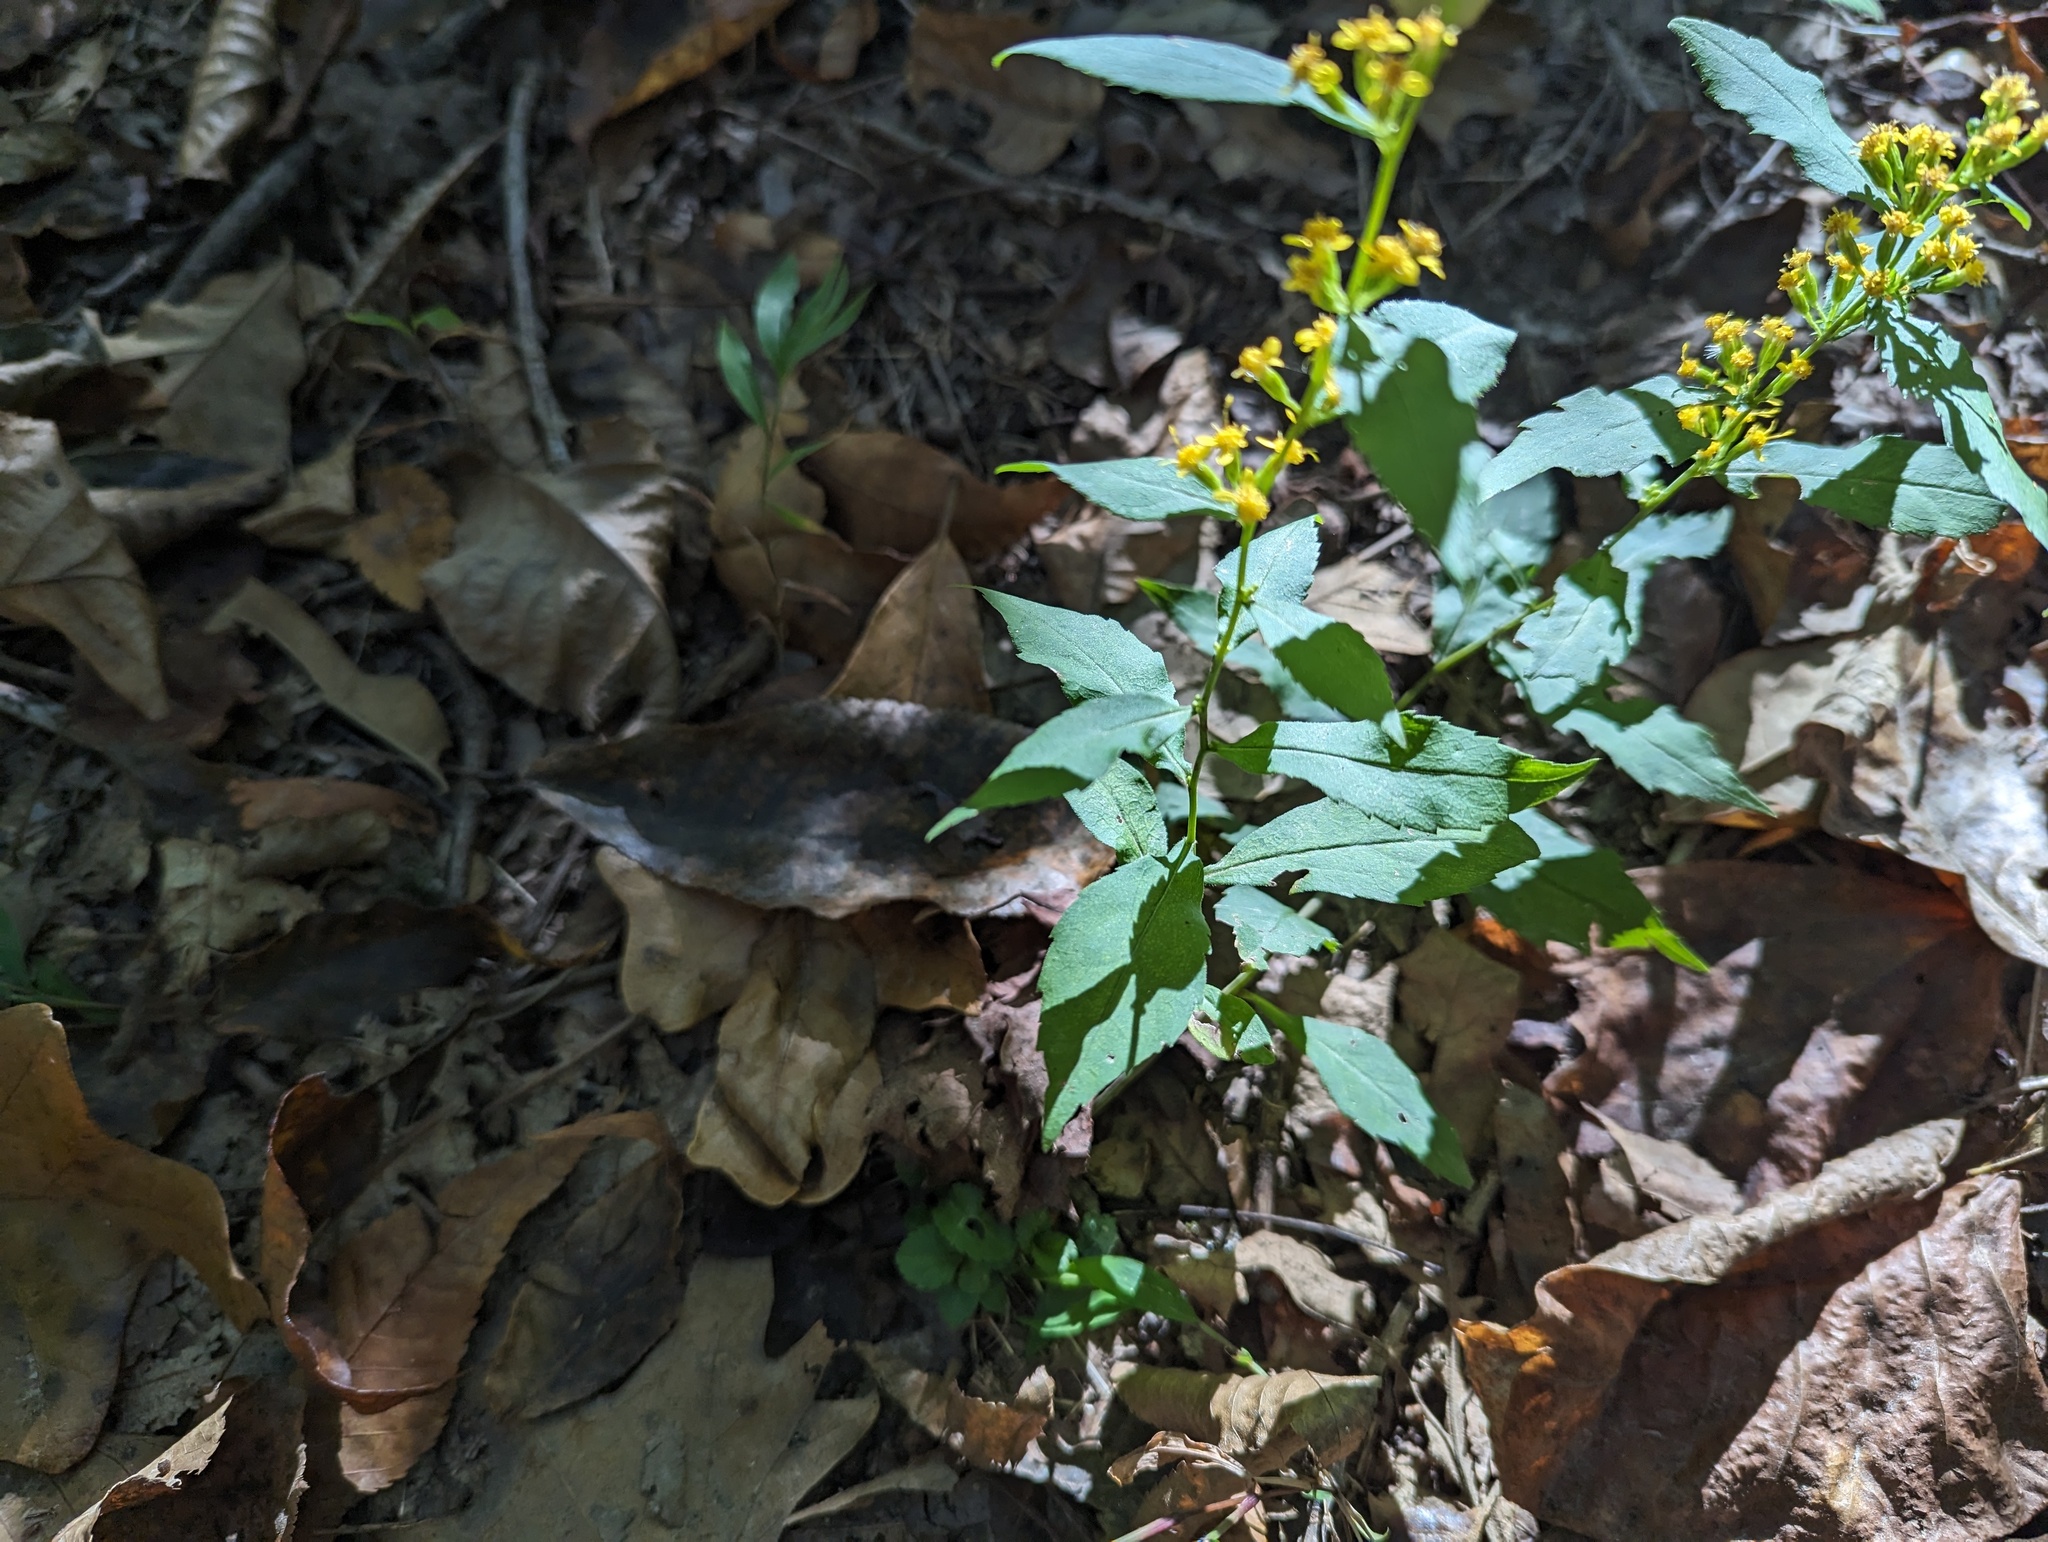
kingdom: Plantae
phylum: Tracheophyta
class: Magnoliopsida
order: Asterales
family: Asteraceae
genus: Solidago
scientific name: Solidago caesia
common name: Woodland goldenrod
